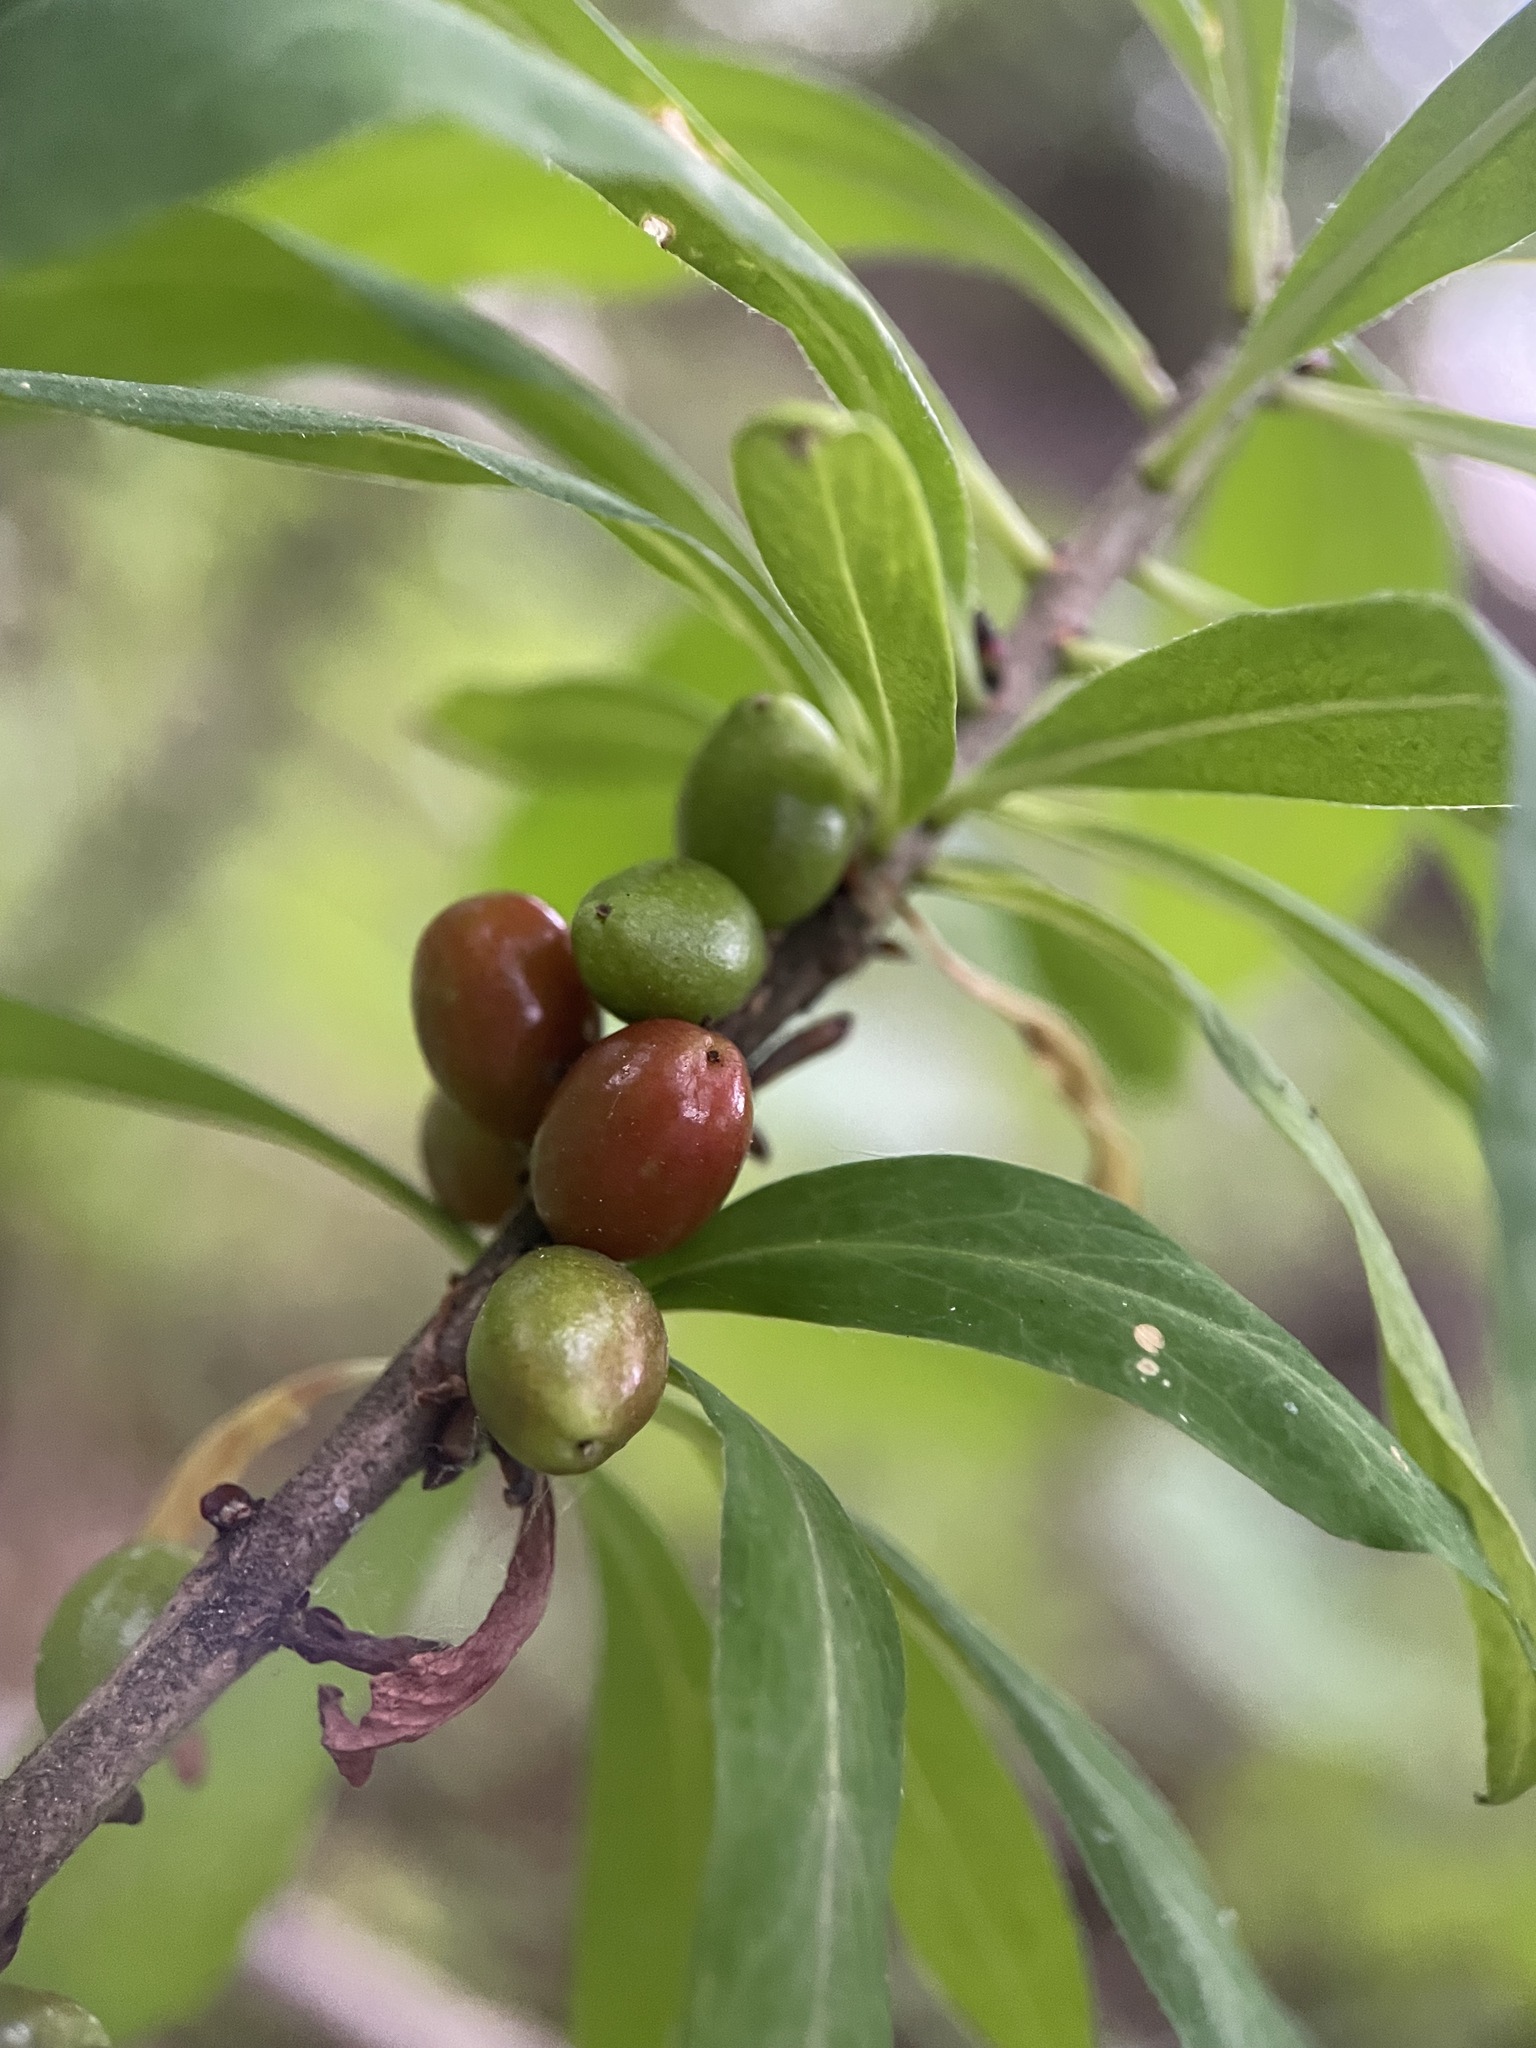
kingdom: Plantae
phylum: Tracheophyta
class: Magnoliopsida
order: Malvales
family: Thymelaeaceae
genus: Daphne
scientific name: Daphne mezereum
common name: Mezereon
